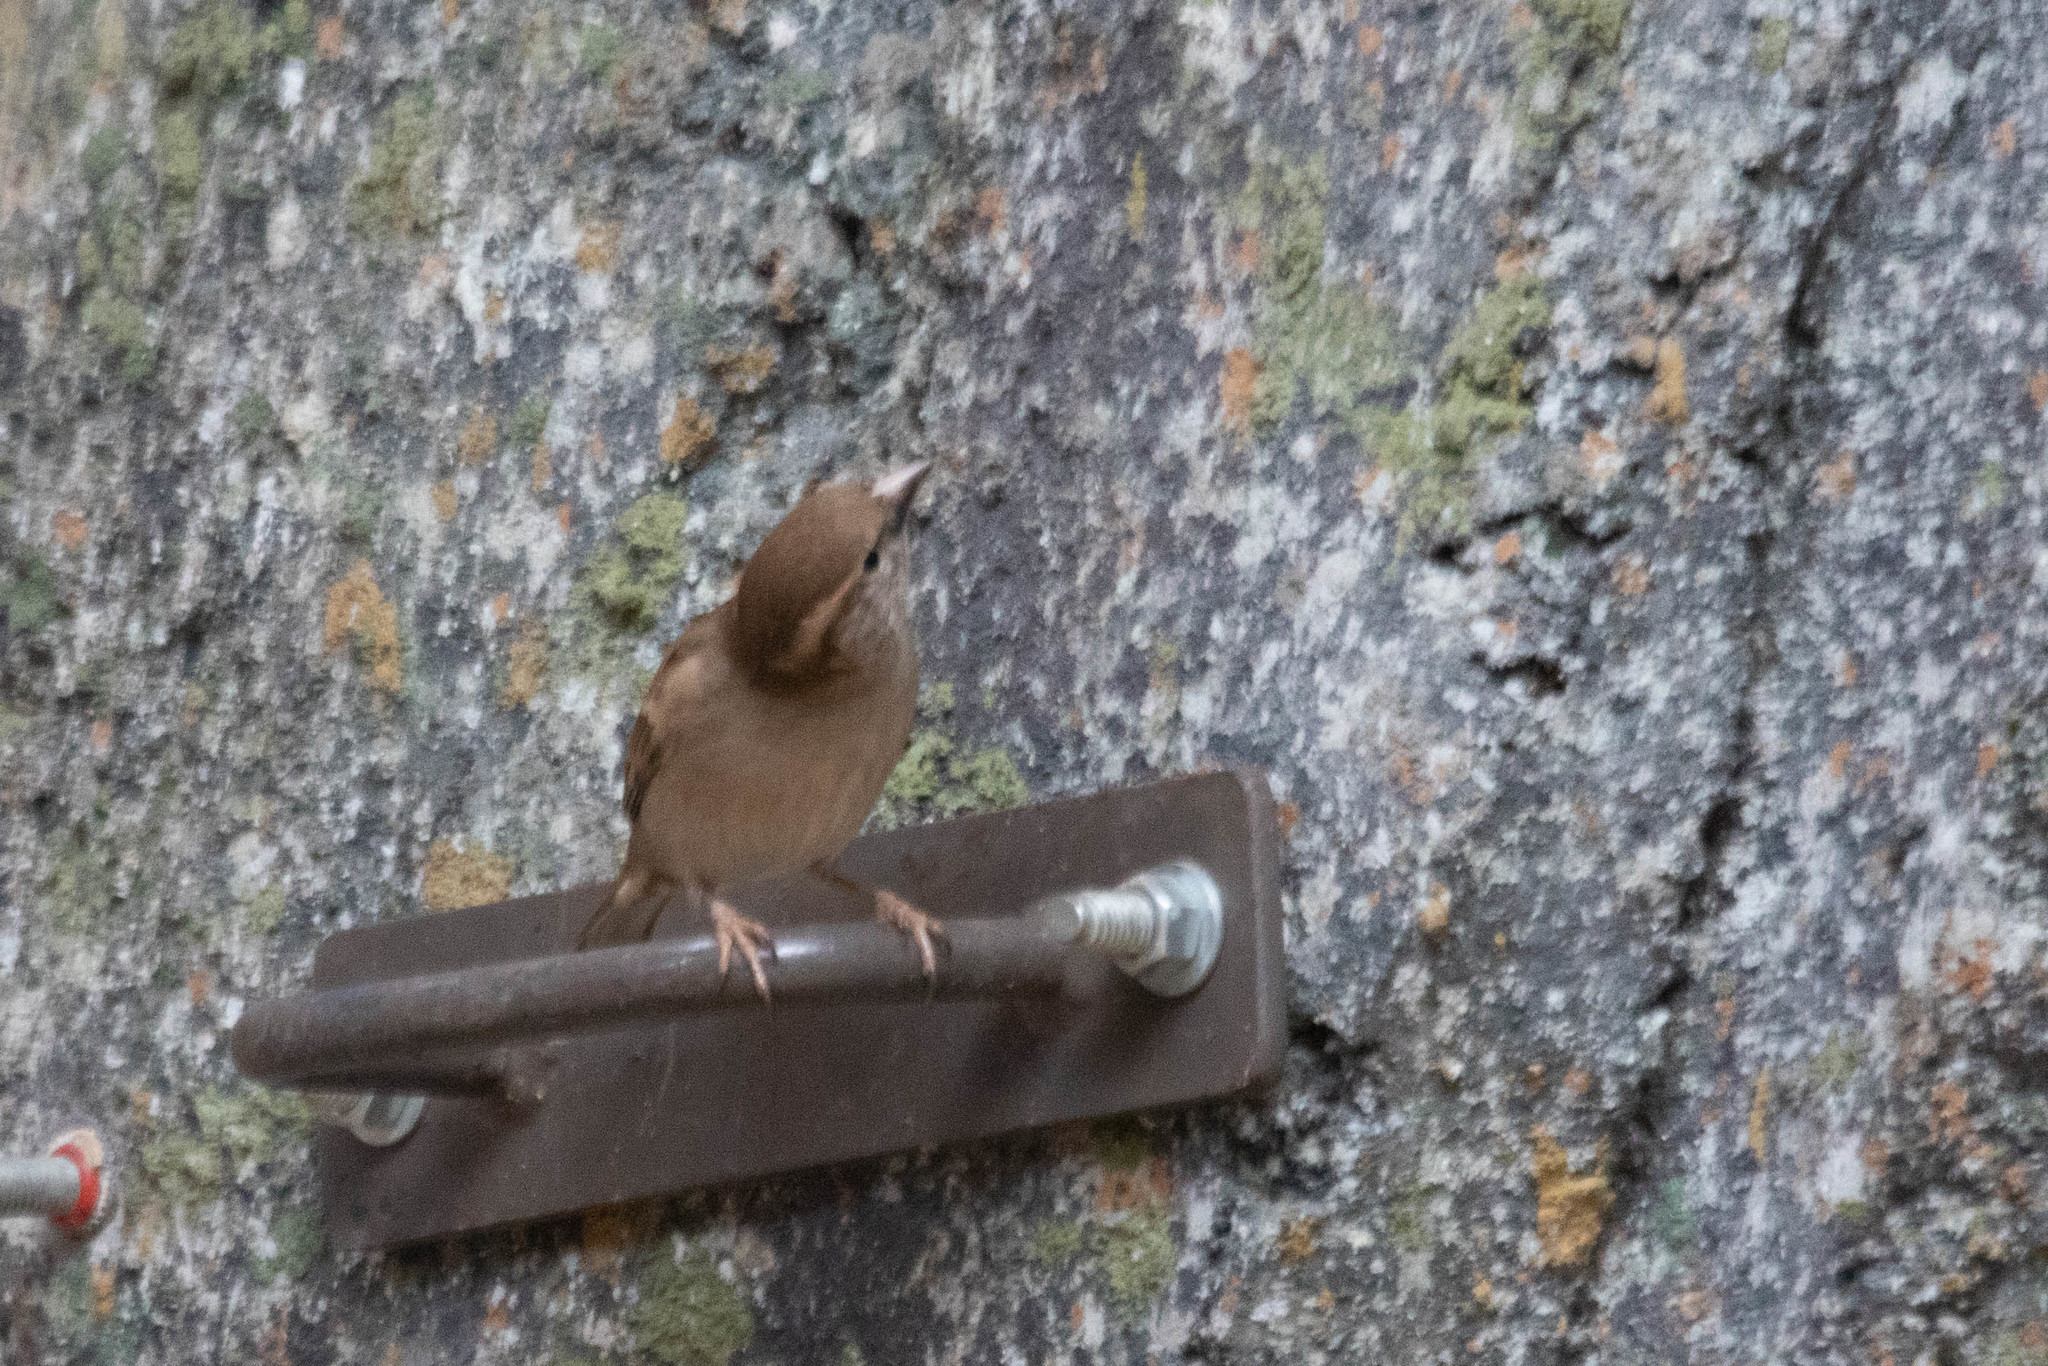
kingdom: Animalia
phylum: Chordata
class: Aves
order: Passeriformes
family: Passeridae
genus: Passer
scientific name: Passer domesticus
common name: House sparrow
